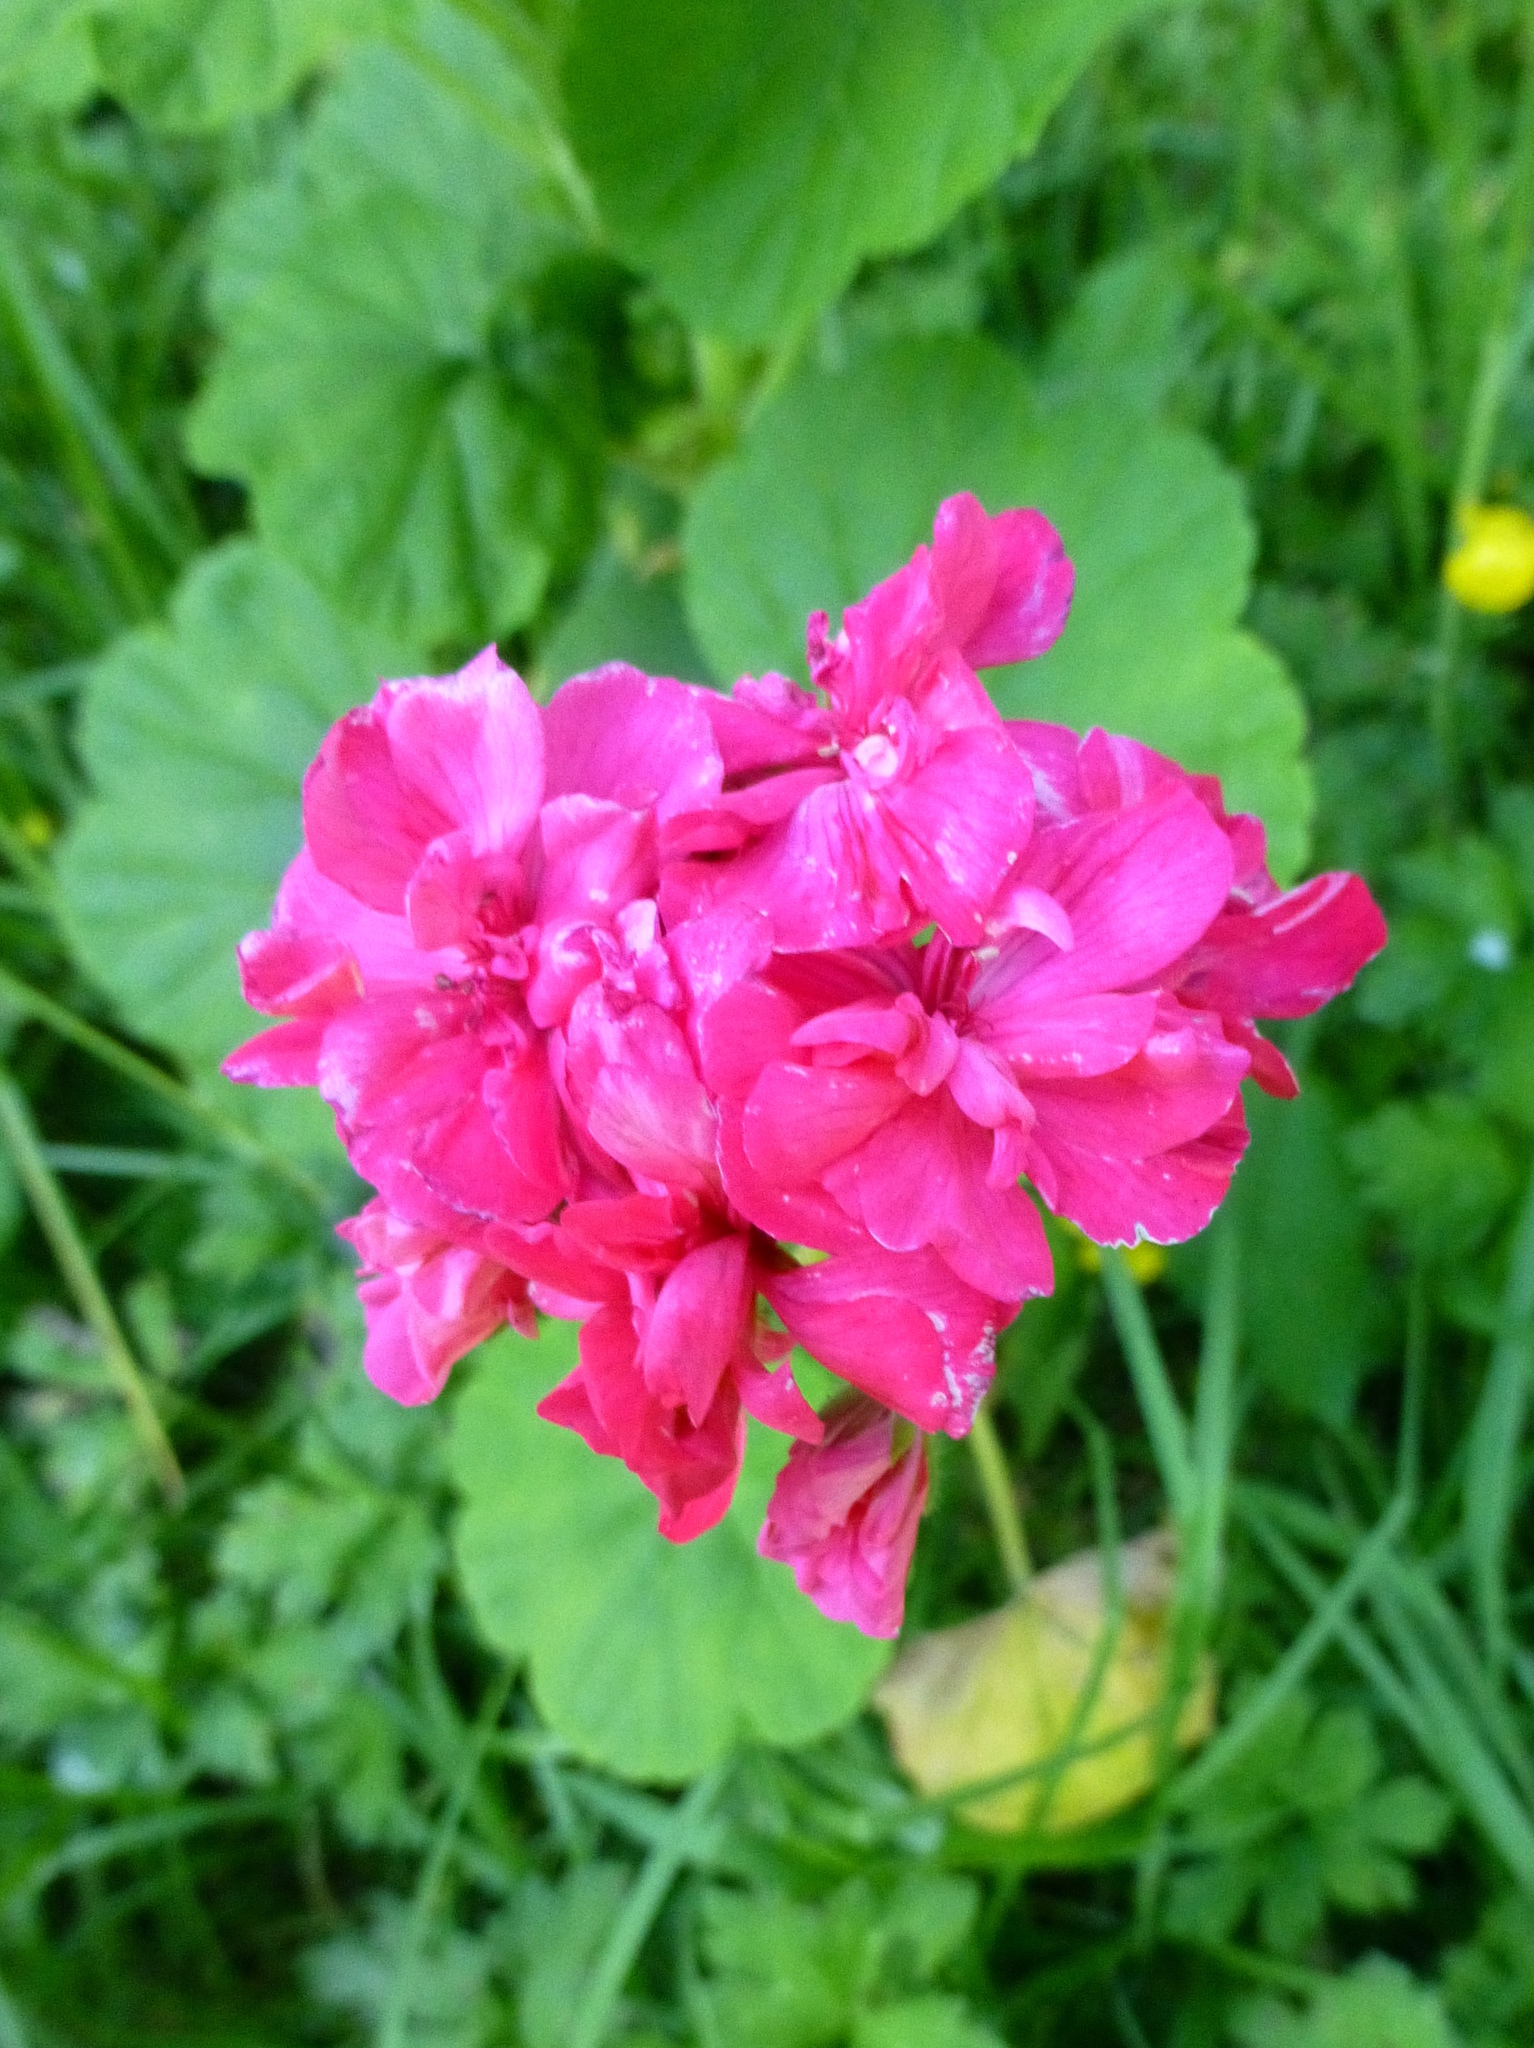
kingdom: Plantae
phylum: Tracheophyta
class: Magnoliopsida
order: Geraniales
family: Geraniaceae
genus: Pelargonium
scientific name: Pelargonium hybridum
